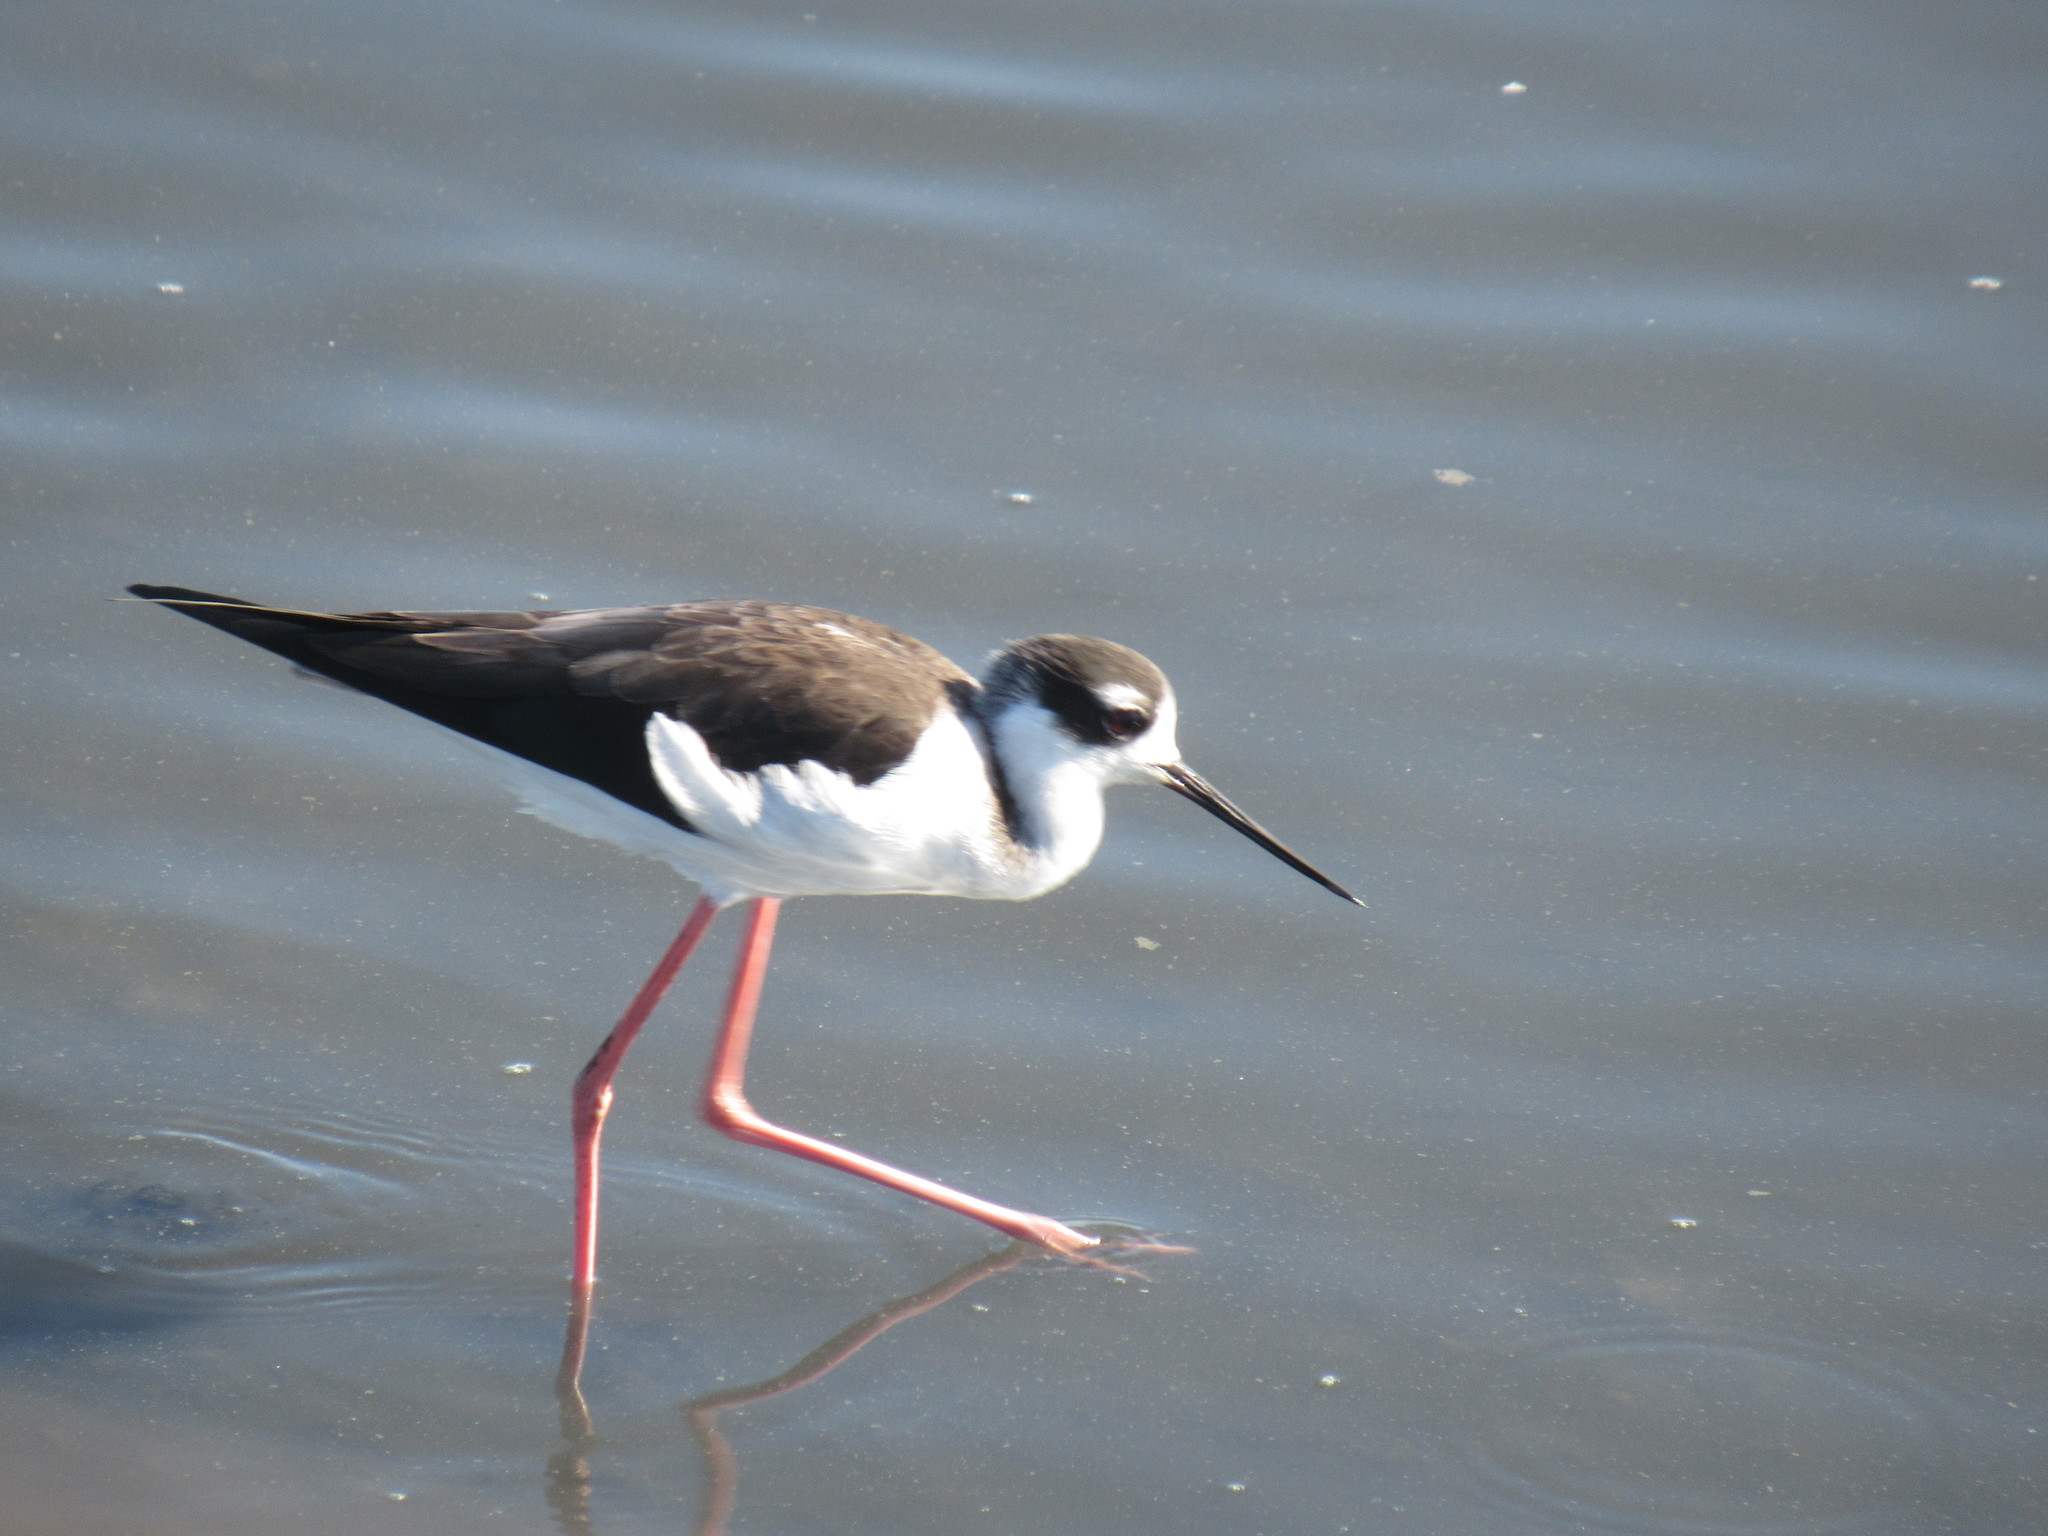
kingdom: Animalia
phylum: Chordata
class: Aves
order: Charadriiformes
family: Recurvirostridae
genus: Himantopus
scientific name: Himantopus mexicanus
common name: Black-necked stilt
